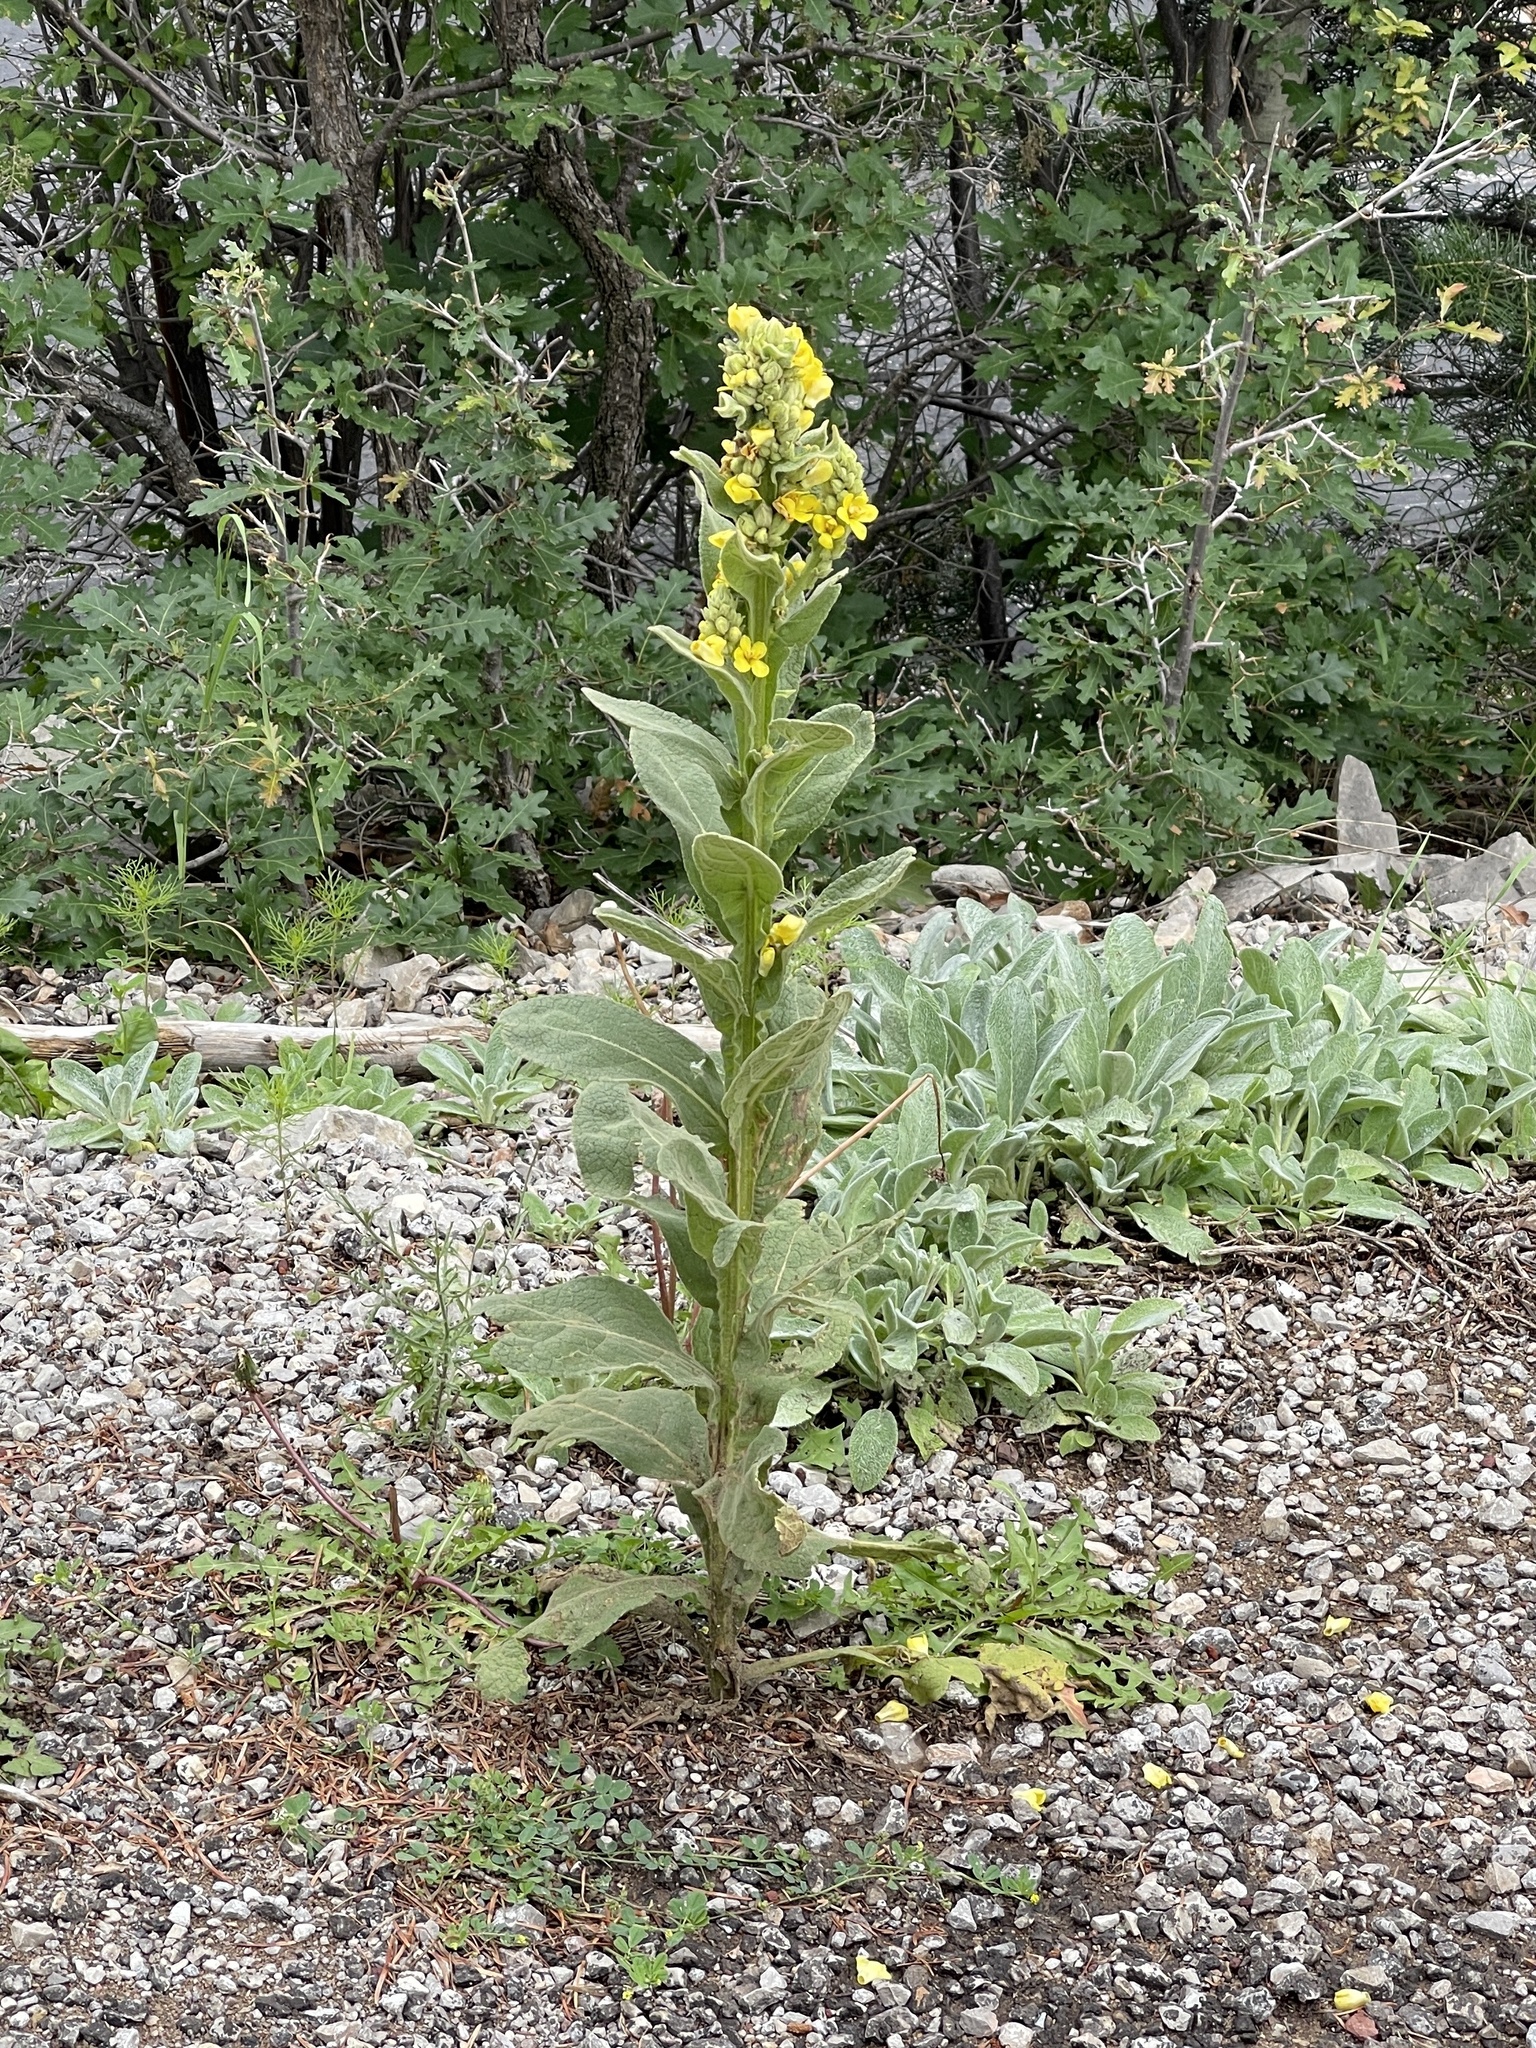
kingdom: Plantae
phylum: Tracheophyta
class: Magnoliopsida
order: Lamiales
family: Scrophulariaceae
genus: Verbascum
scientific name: Verbascum thapsus
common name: Common mullein
